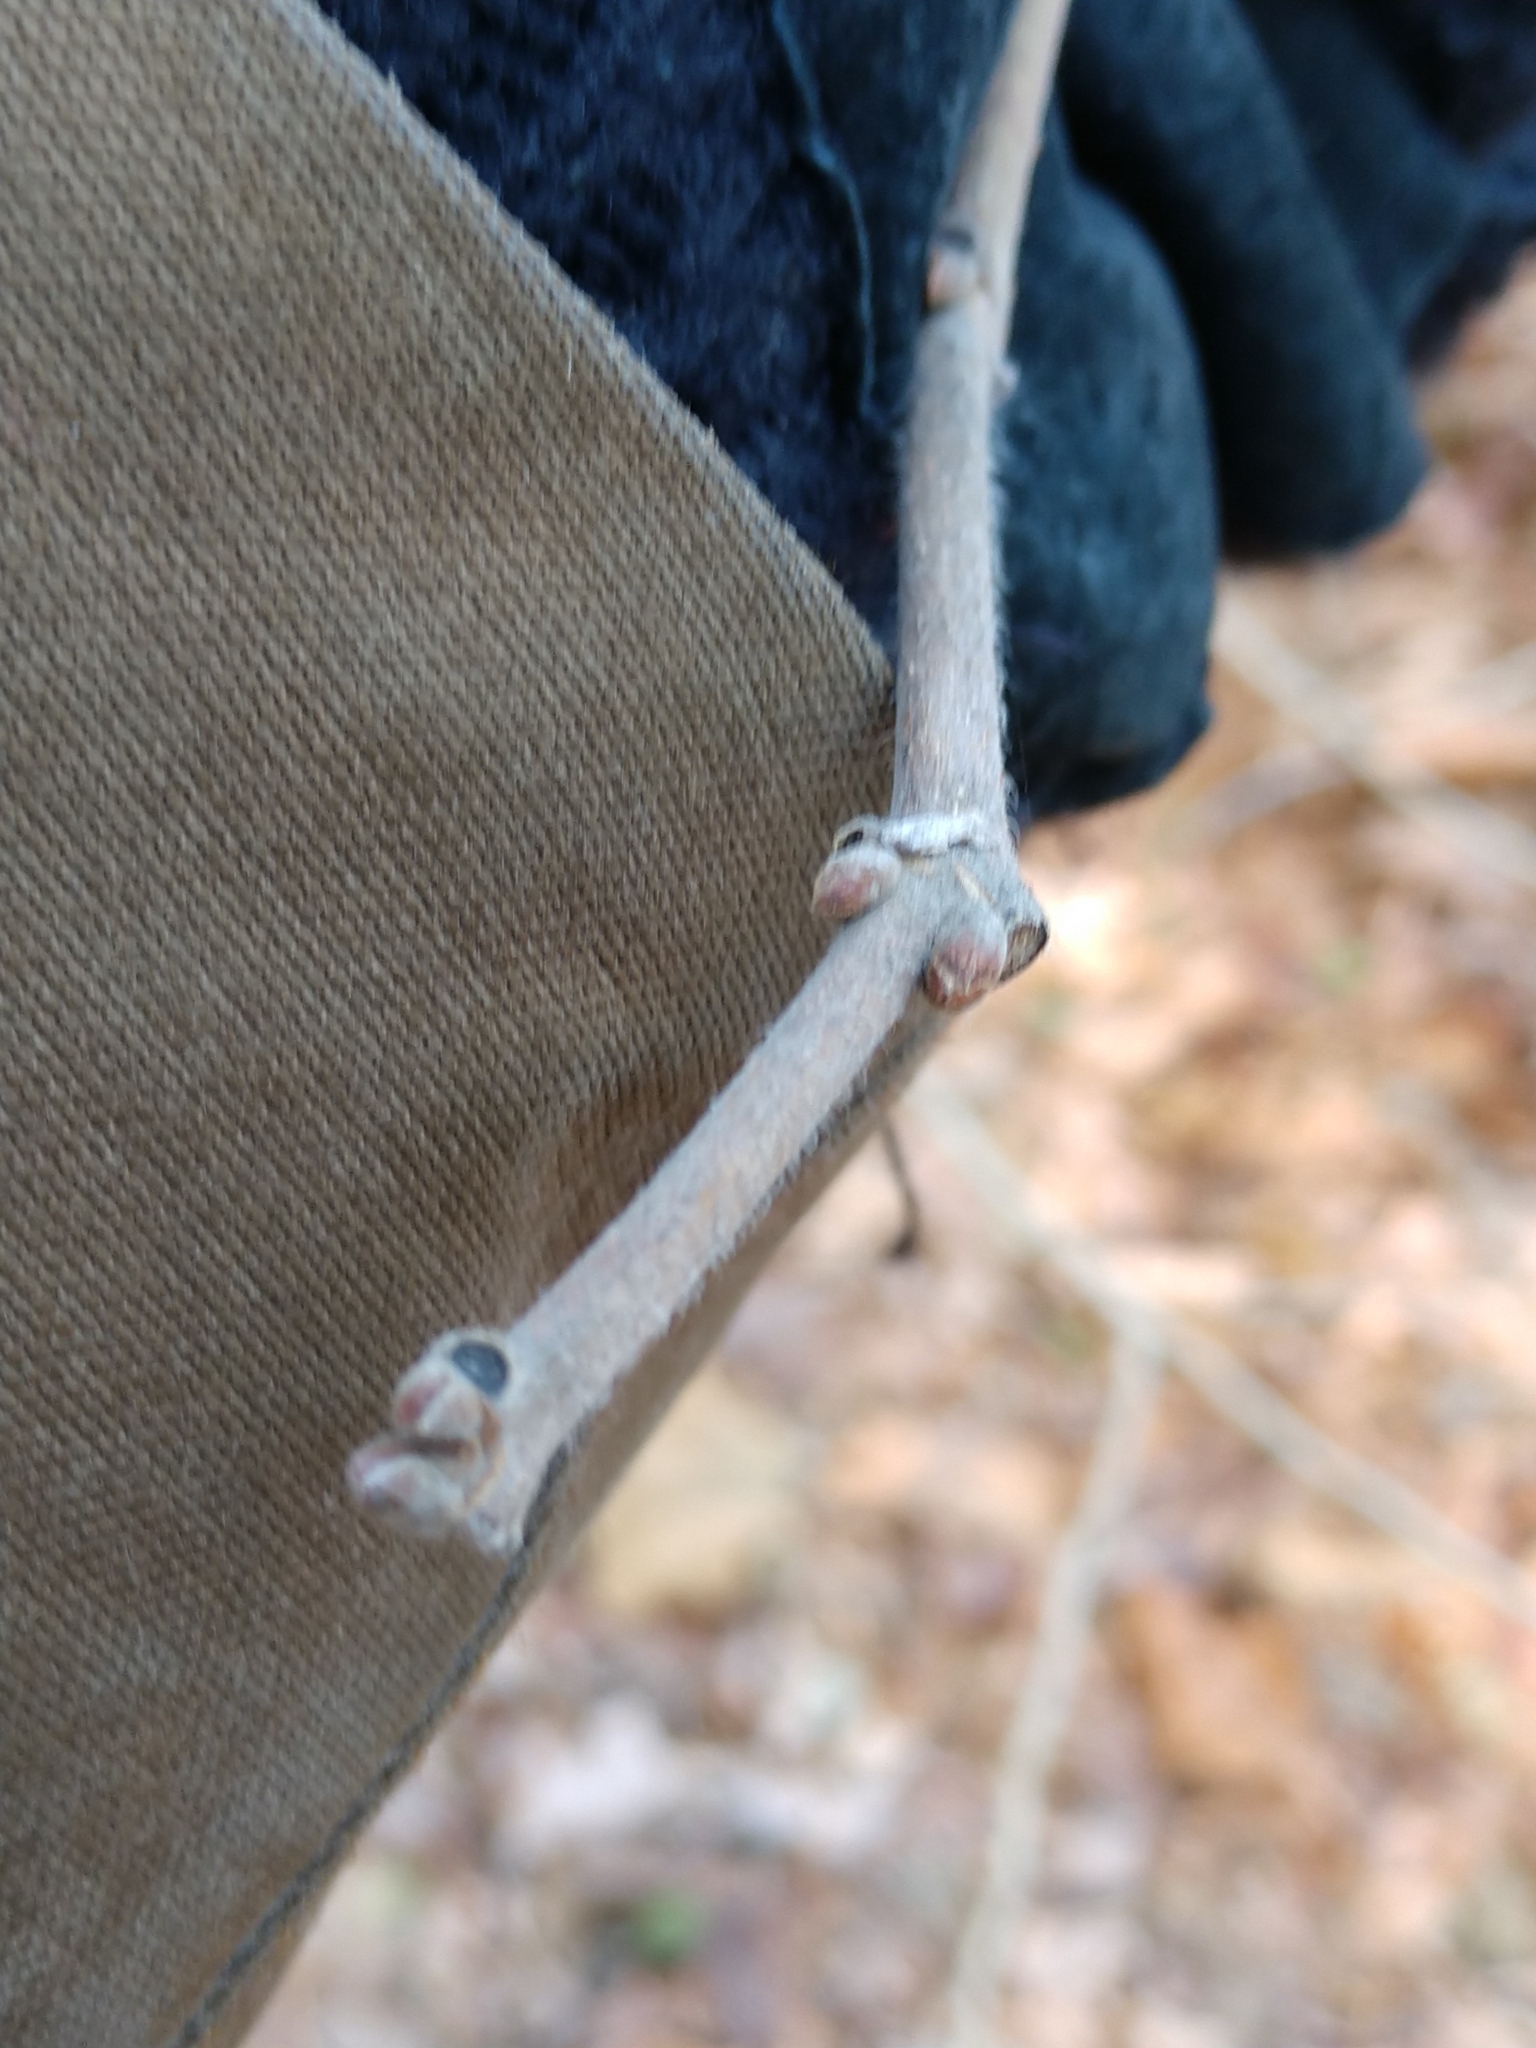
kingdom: Plantae
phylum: Tracheophyta
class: Magnoliopsida
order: Rosales
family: Moraceae
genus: Broussonetia
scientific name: Broussonetia papyrifera
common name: Paper mulberry
